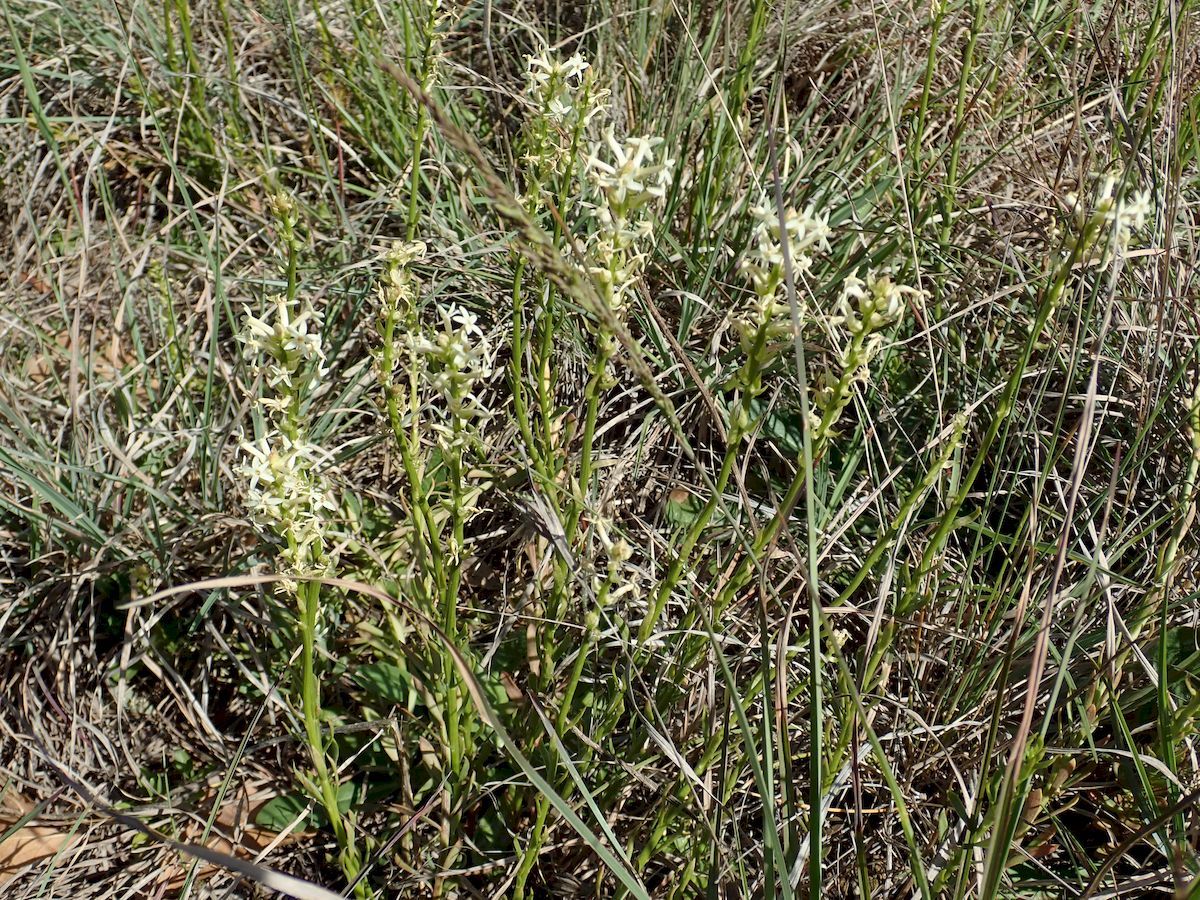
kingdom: Plantae
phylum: Tracheophyta
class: Magnoliopsida
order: Celastrales
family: Celastraceae
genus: Stackhousia
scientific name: Stackhousia monogyna
